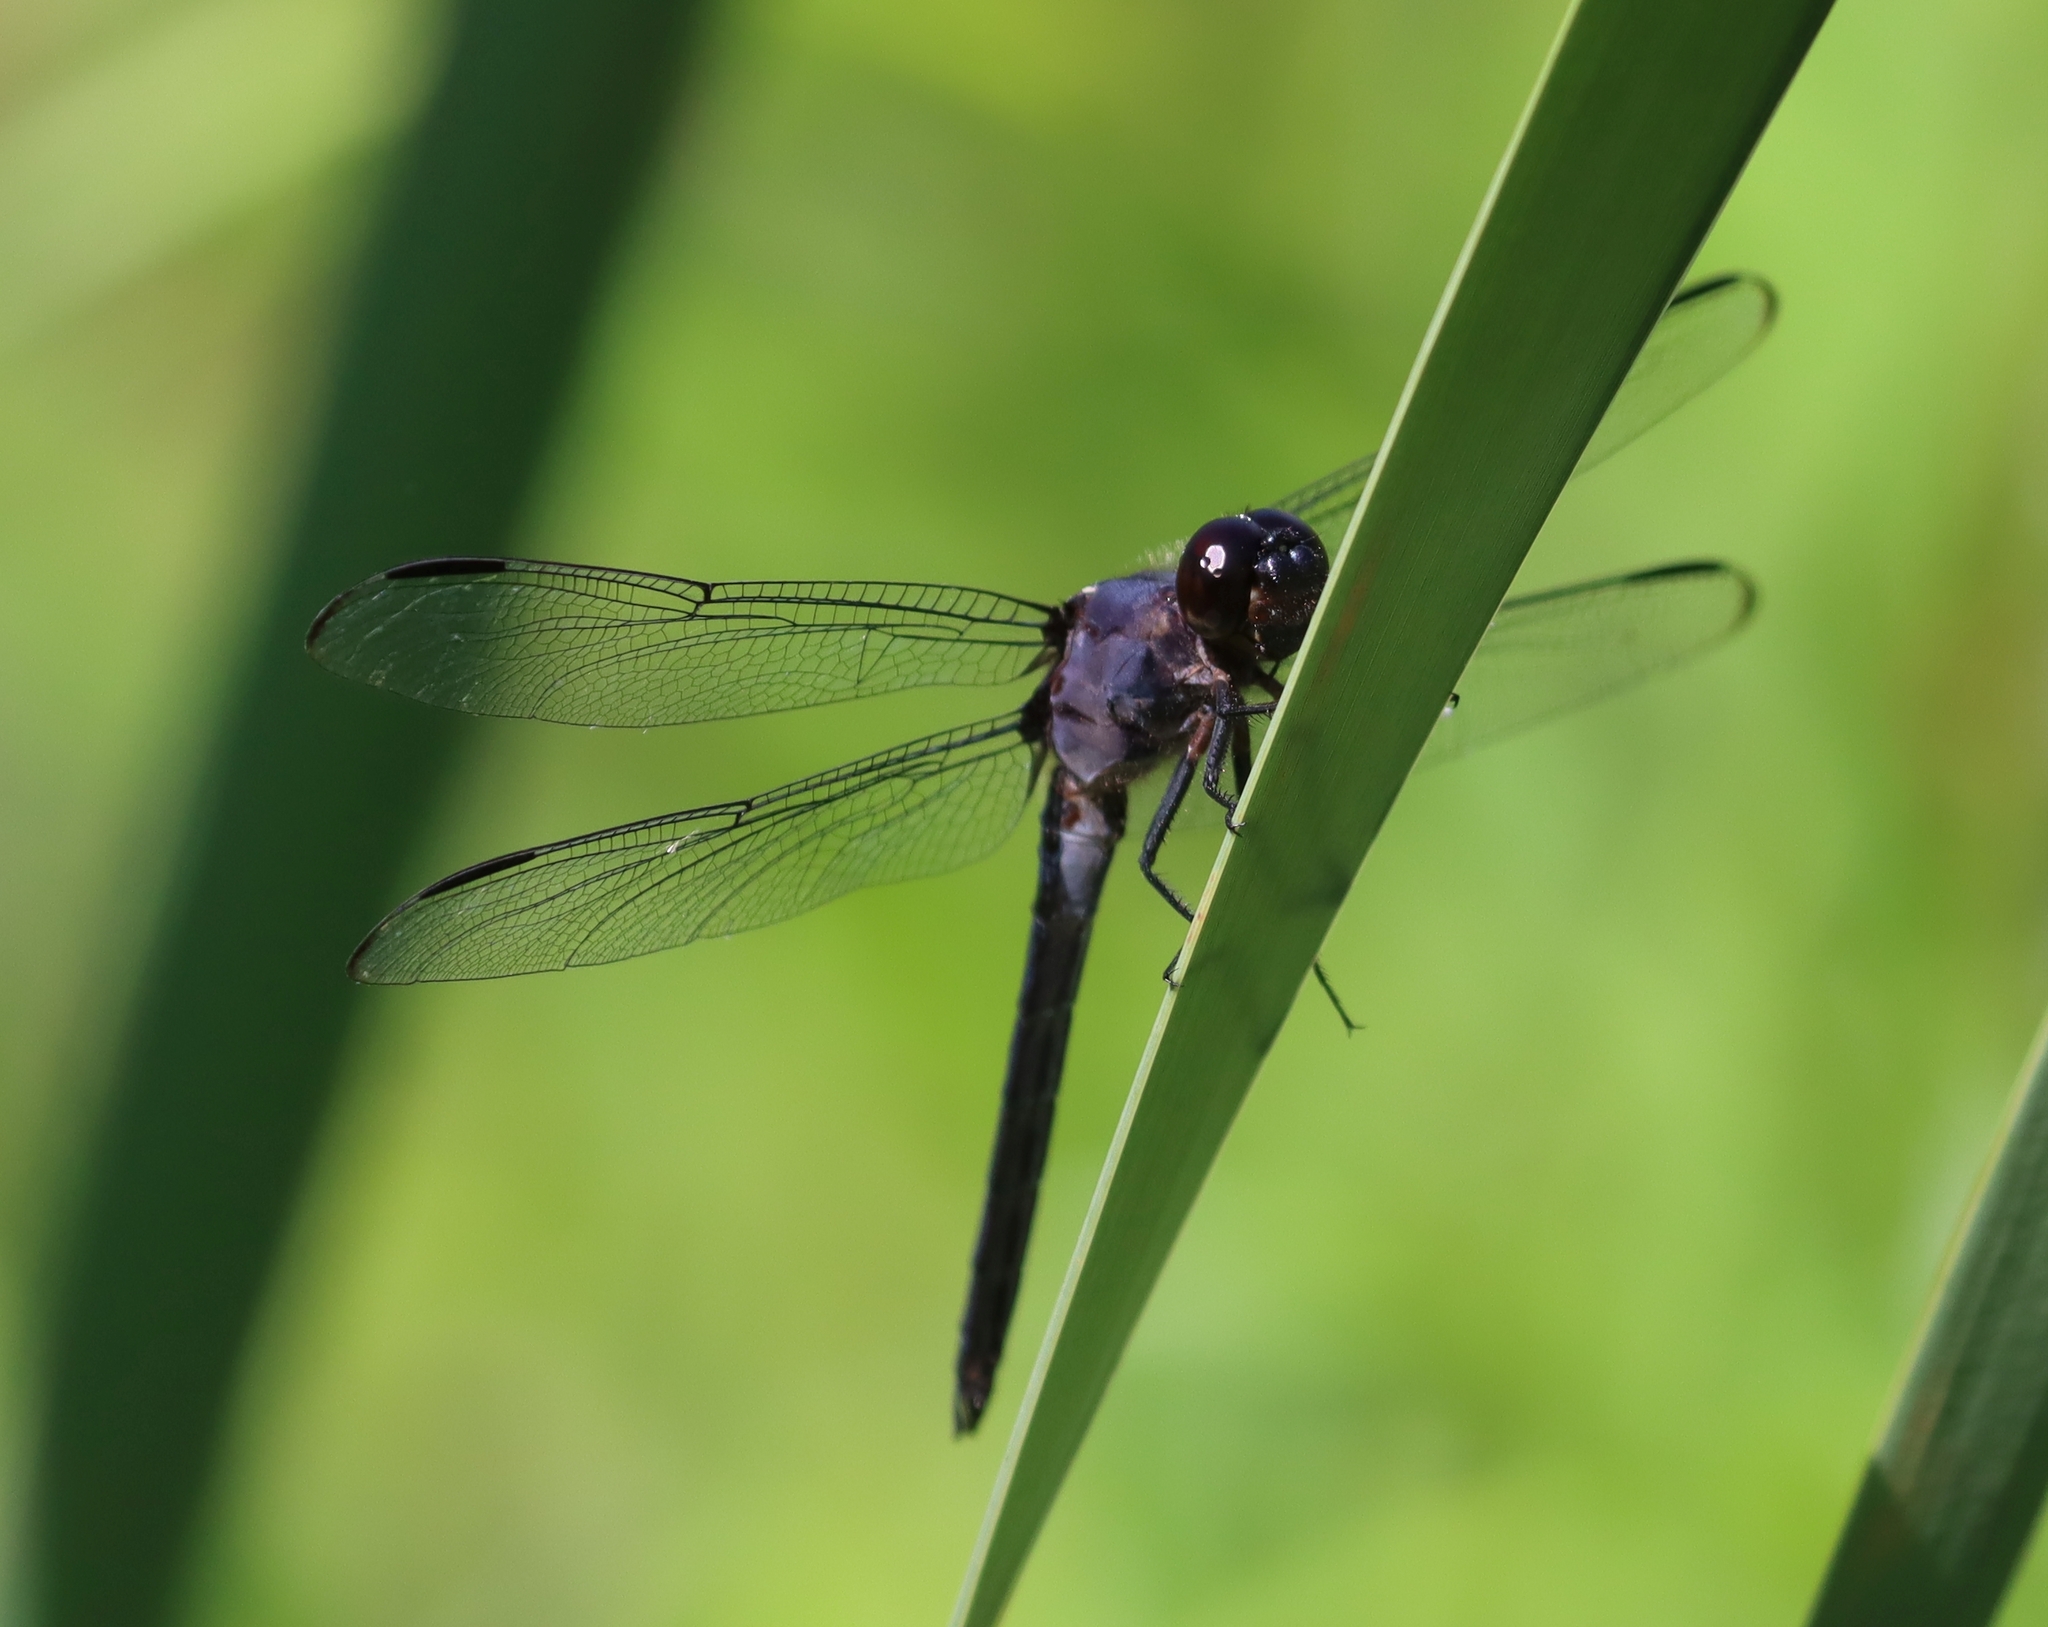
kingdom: Animalia
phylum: Arthropoda
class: Insecta
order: Odonata
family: Libellulidae
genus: Libellula
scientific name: Libellula incesta
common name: Slaty skimmer
